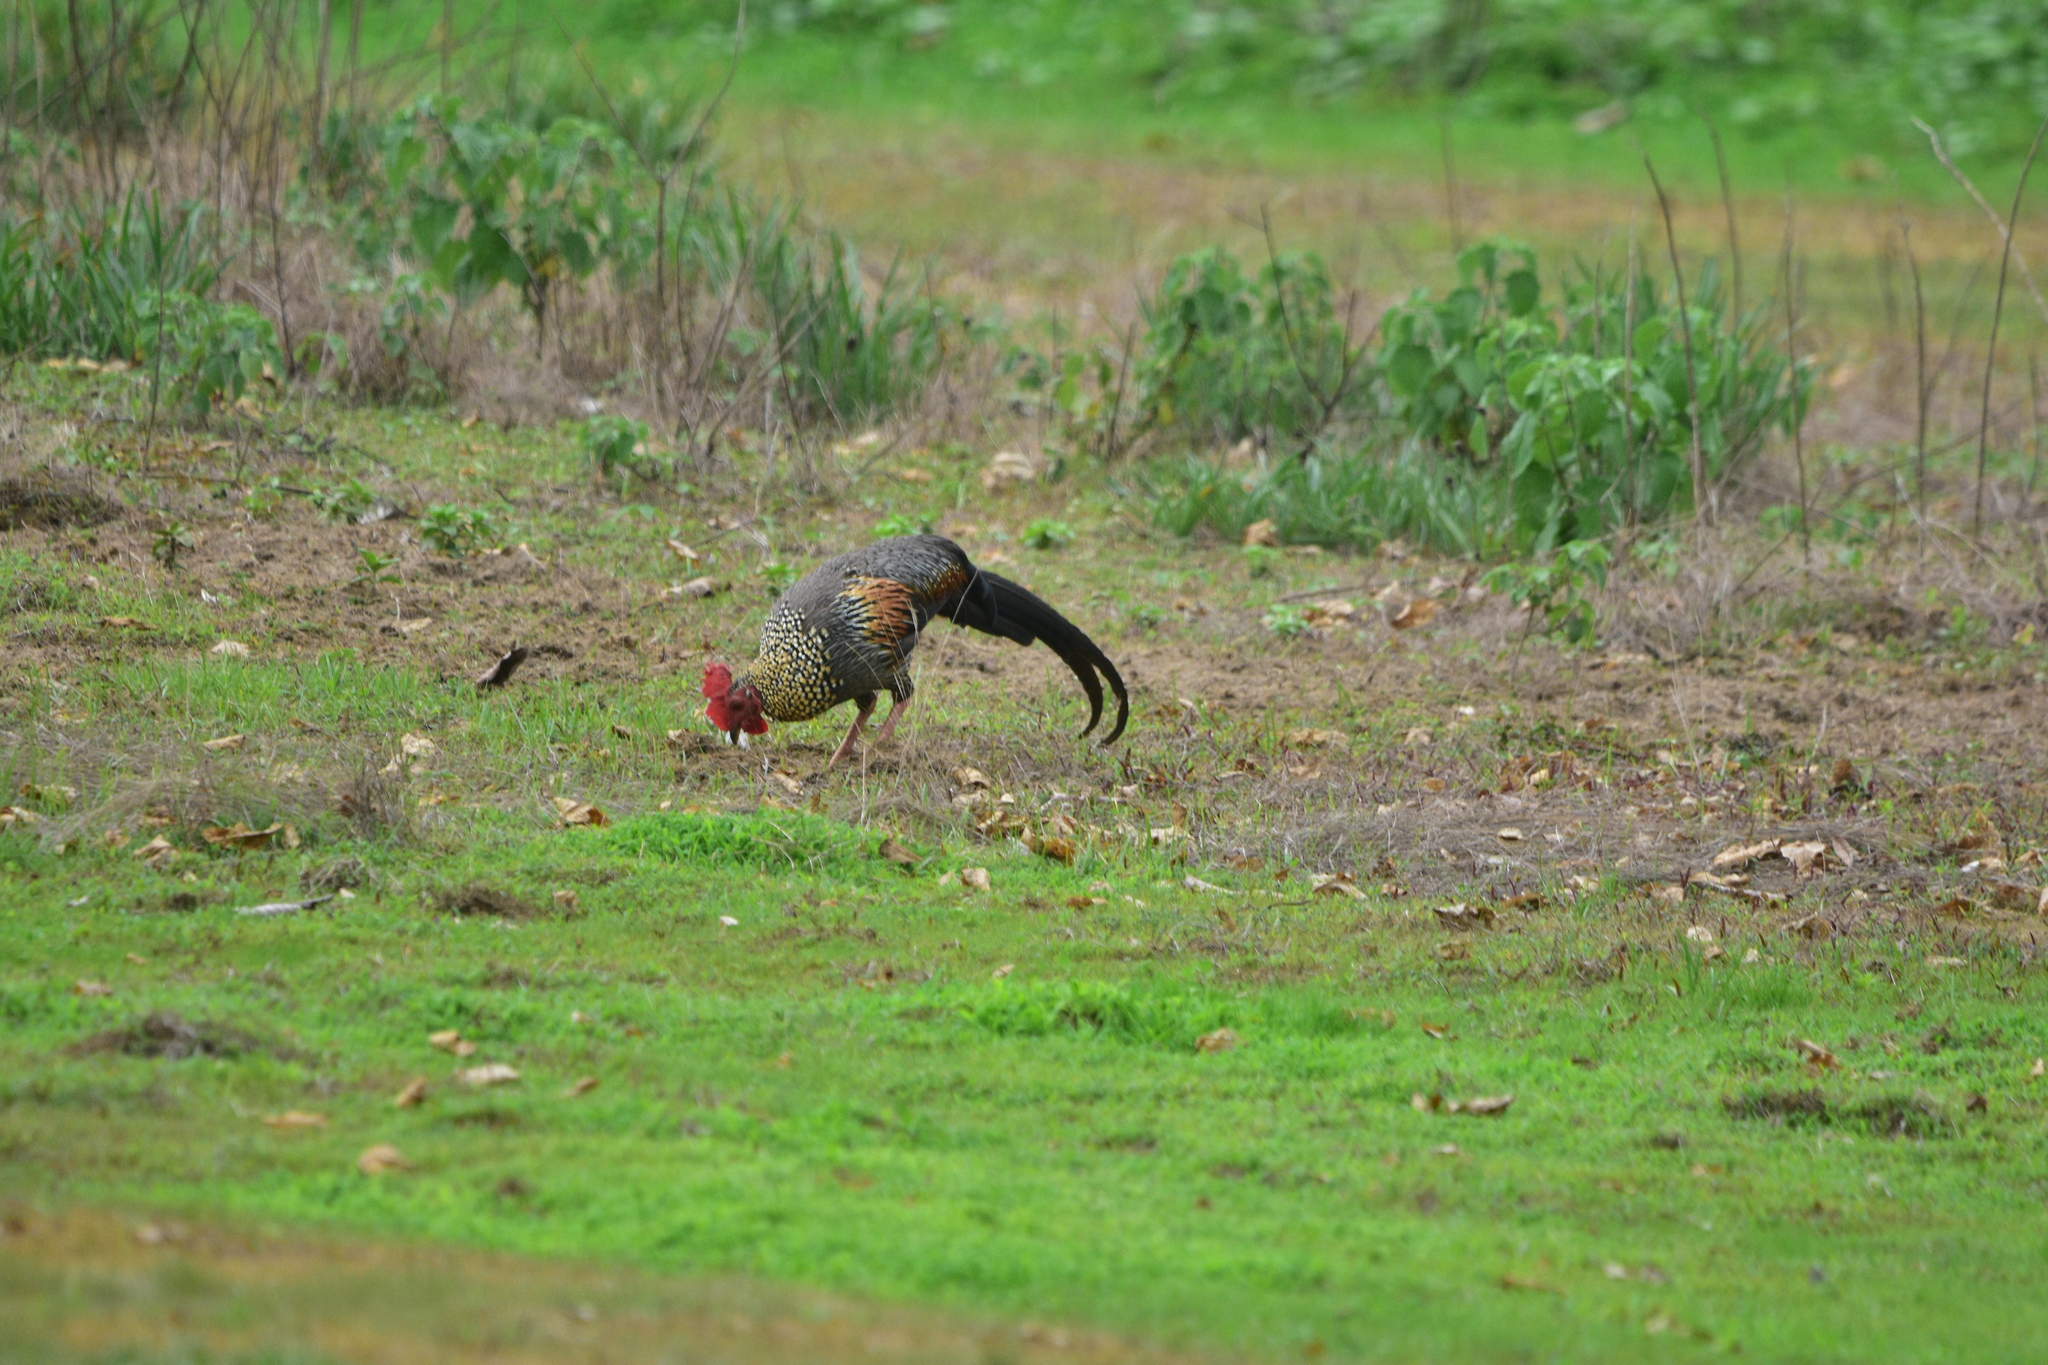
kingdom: Animalia
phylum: Chordata
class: Aves
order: Galliformes
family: Phasianidae
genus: Gallus
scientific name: Gallus sonneratii
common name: Grey junglefowl
